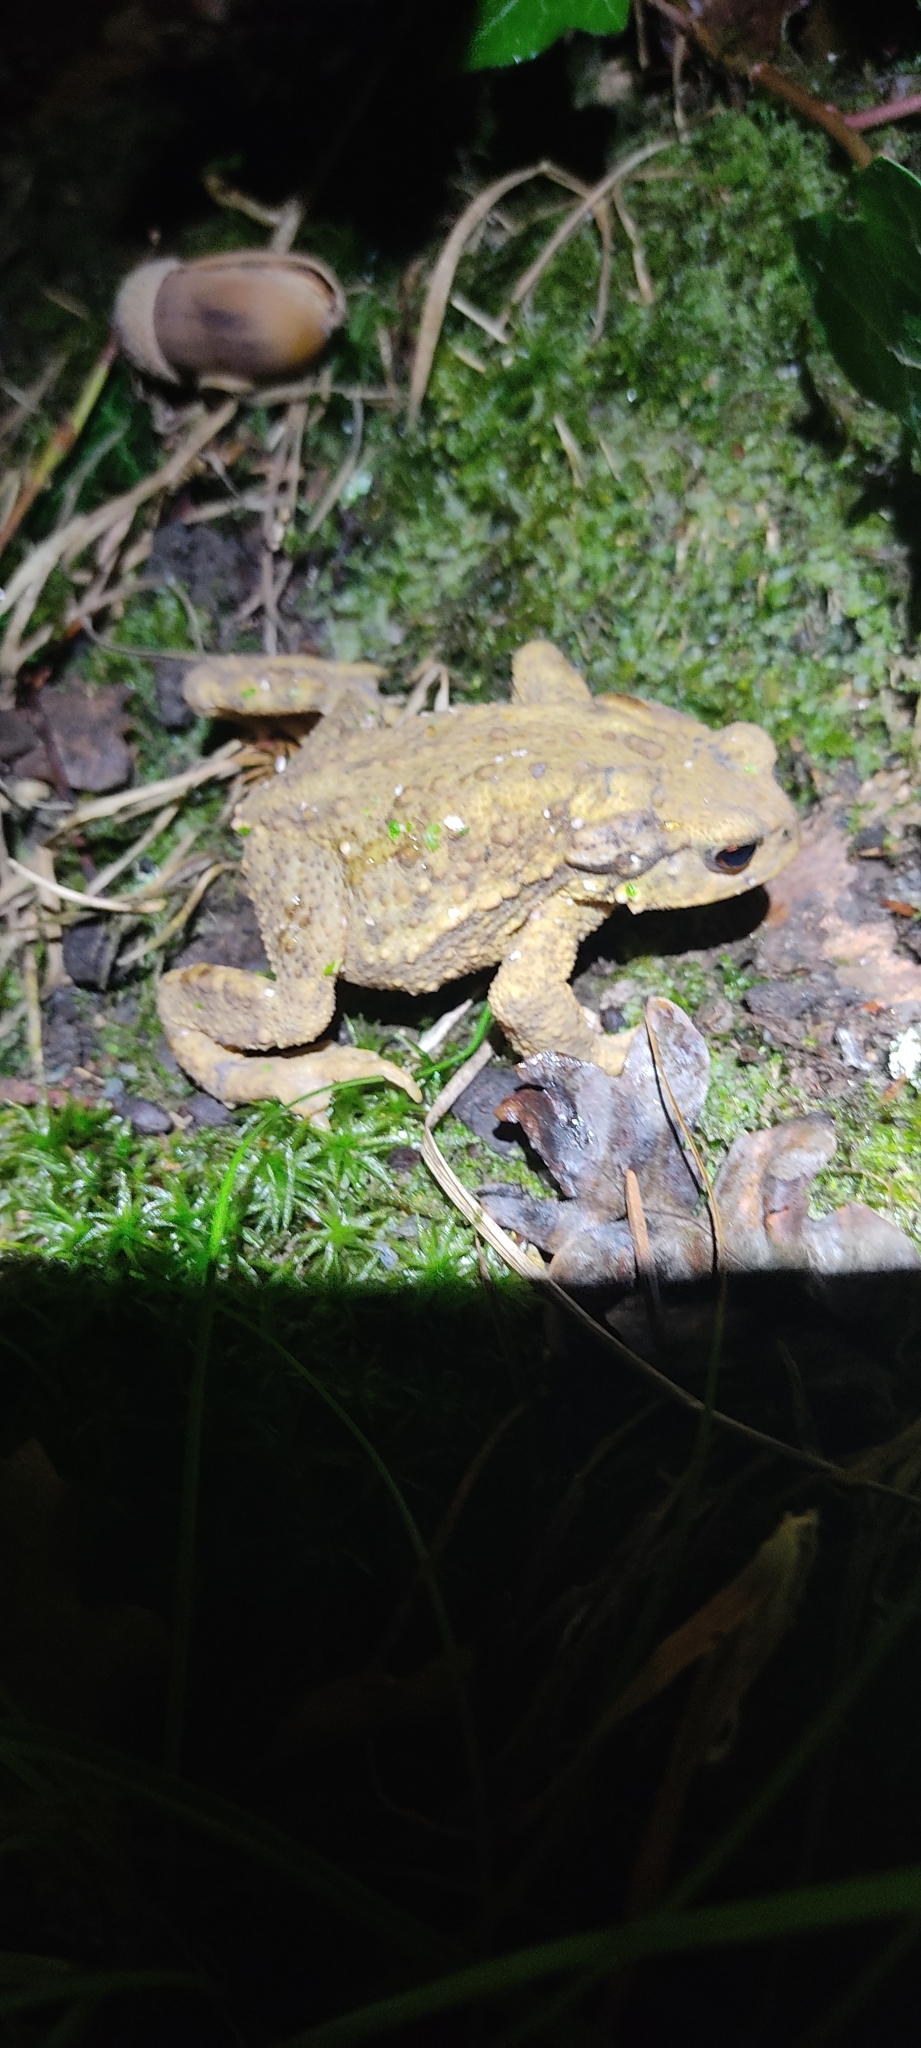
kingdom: Animalia
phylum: Chordata
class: Amphibia
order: Anura
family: Bufonidae
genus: Bufo
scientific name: Bufo spinosus
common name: Western common toad
